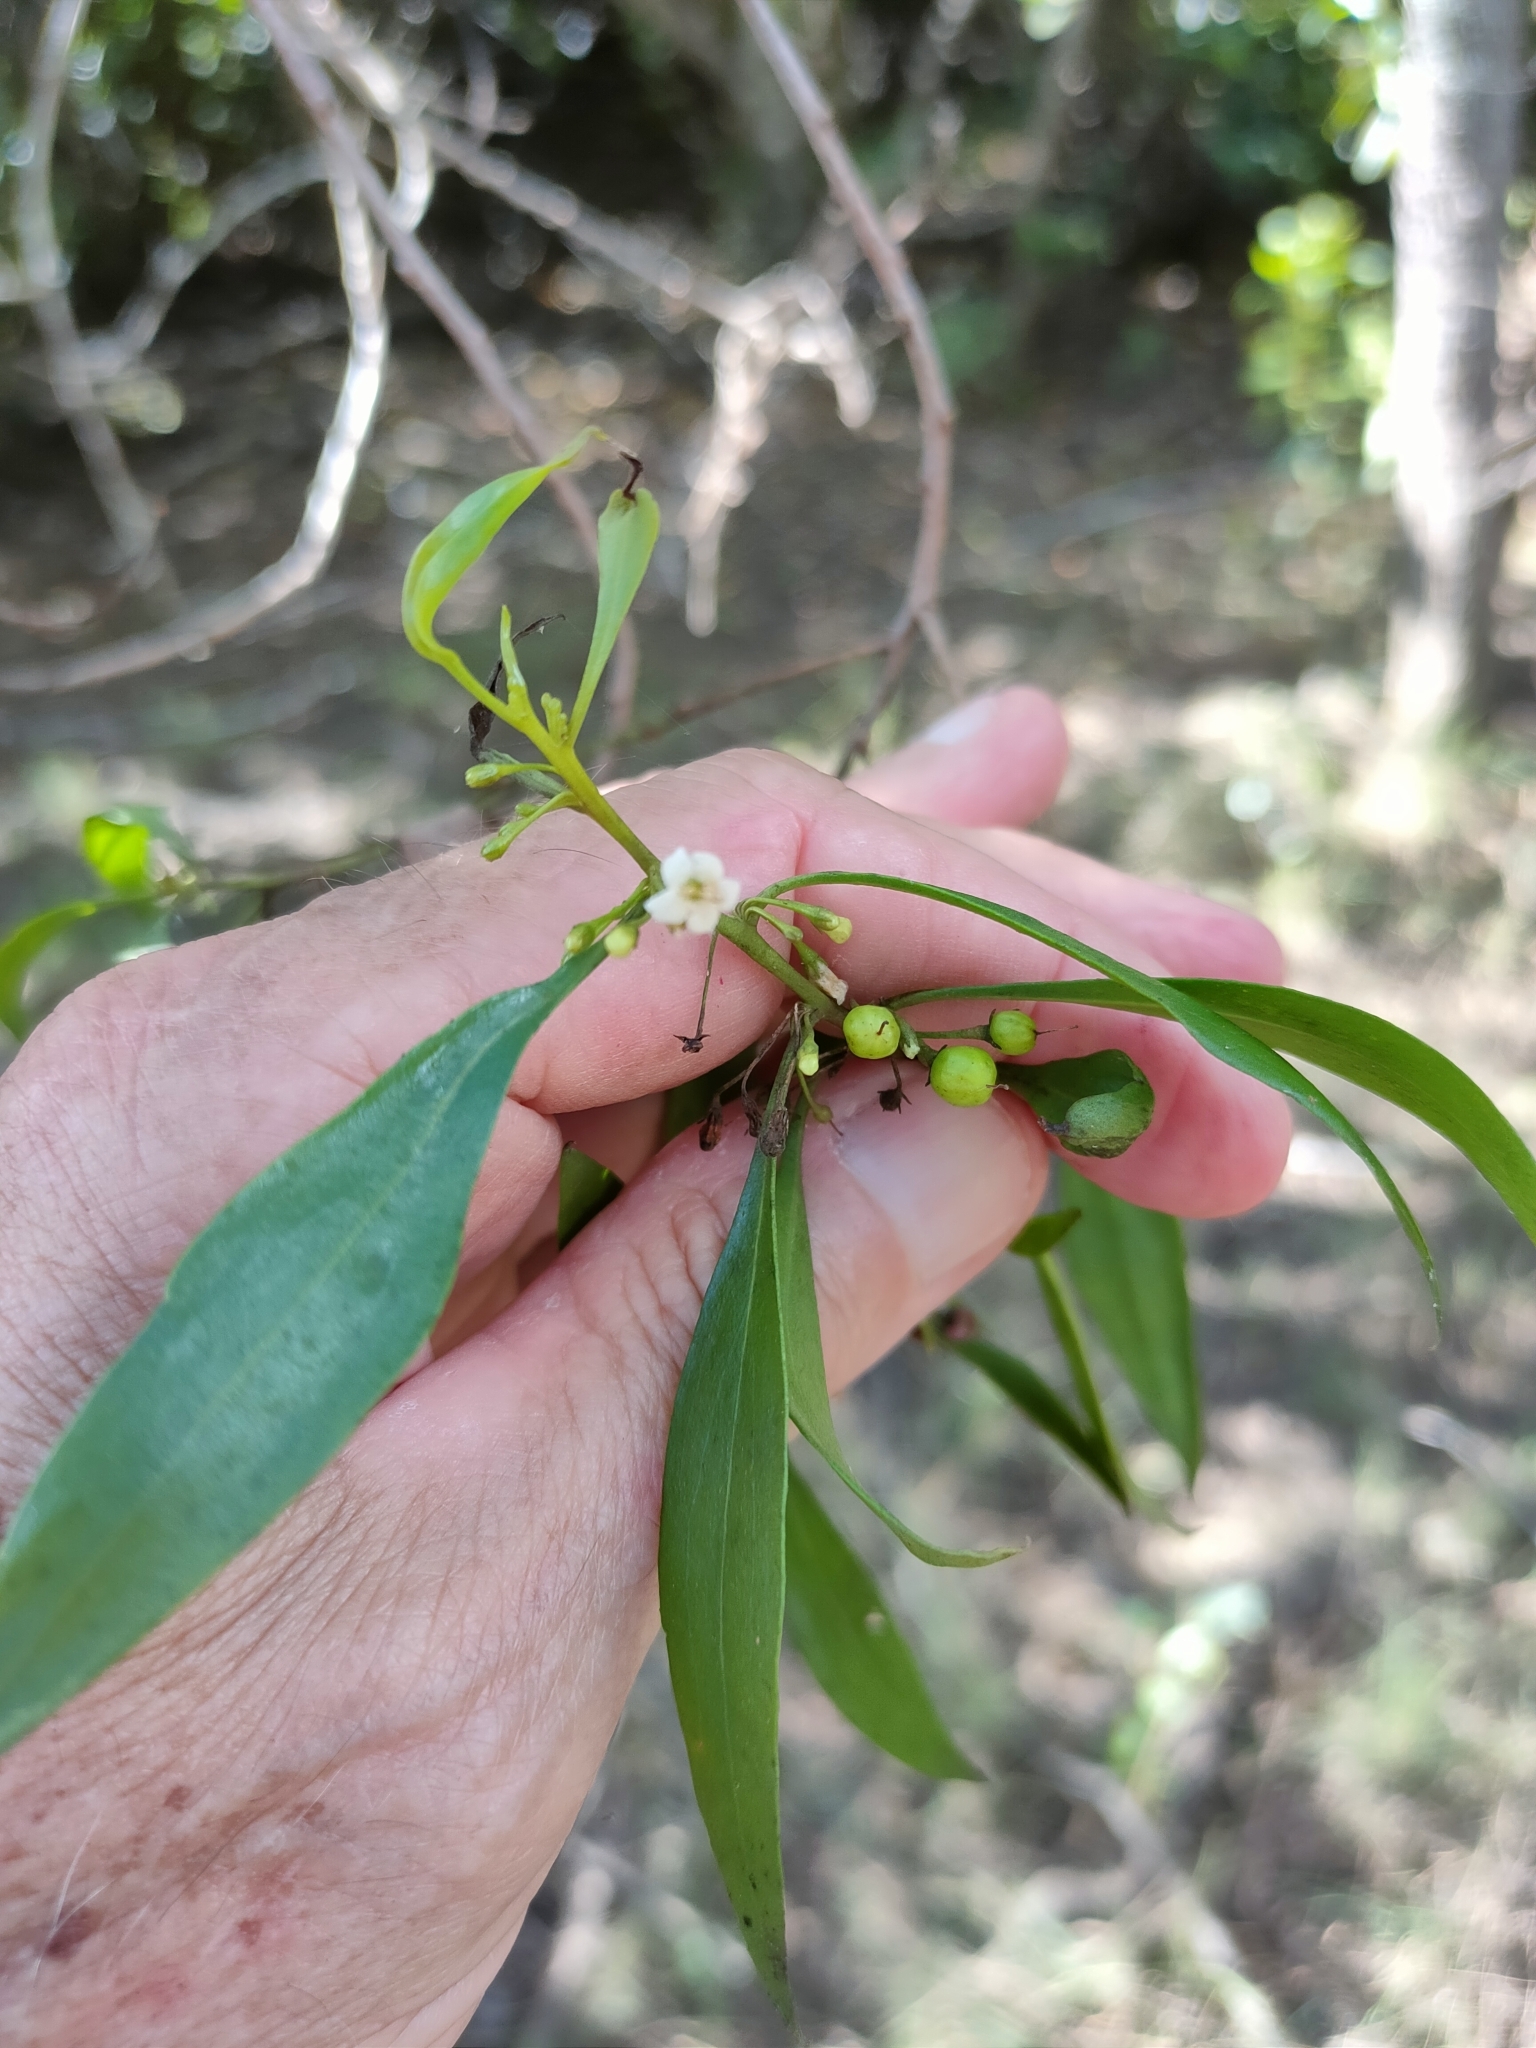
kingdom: Plantae
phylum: Tracheophyta
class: Magnoliopsida
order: Lamiales
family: Scrophulariaceae
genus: Myoporum
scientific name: Myoporum acuminatum
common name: Pointed boobialla
